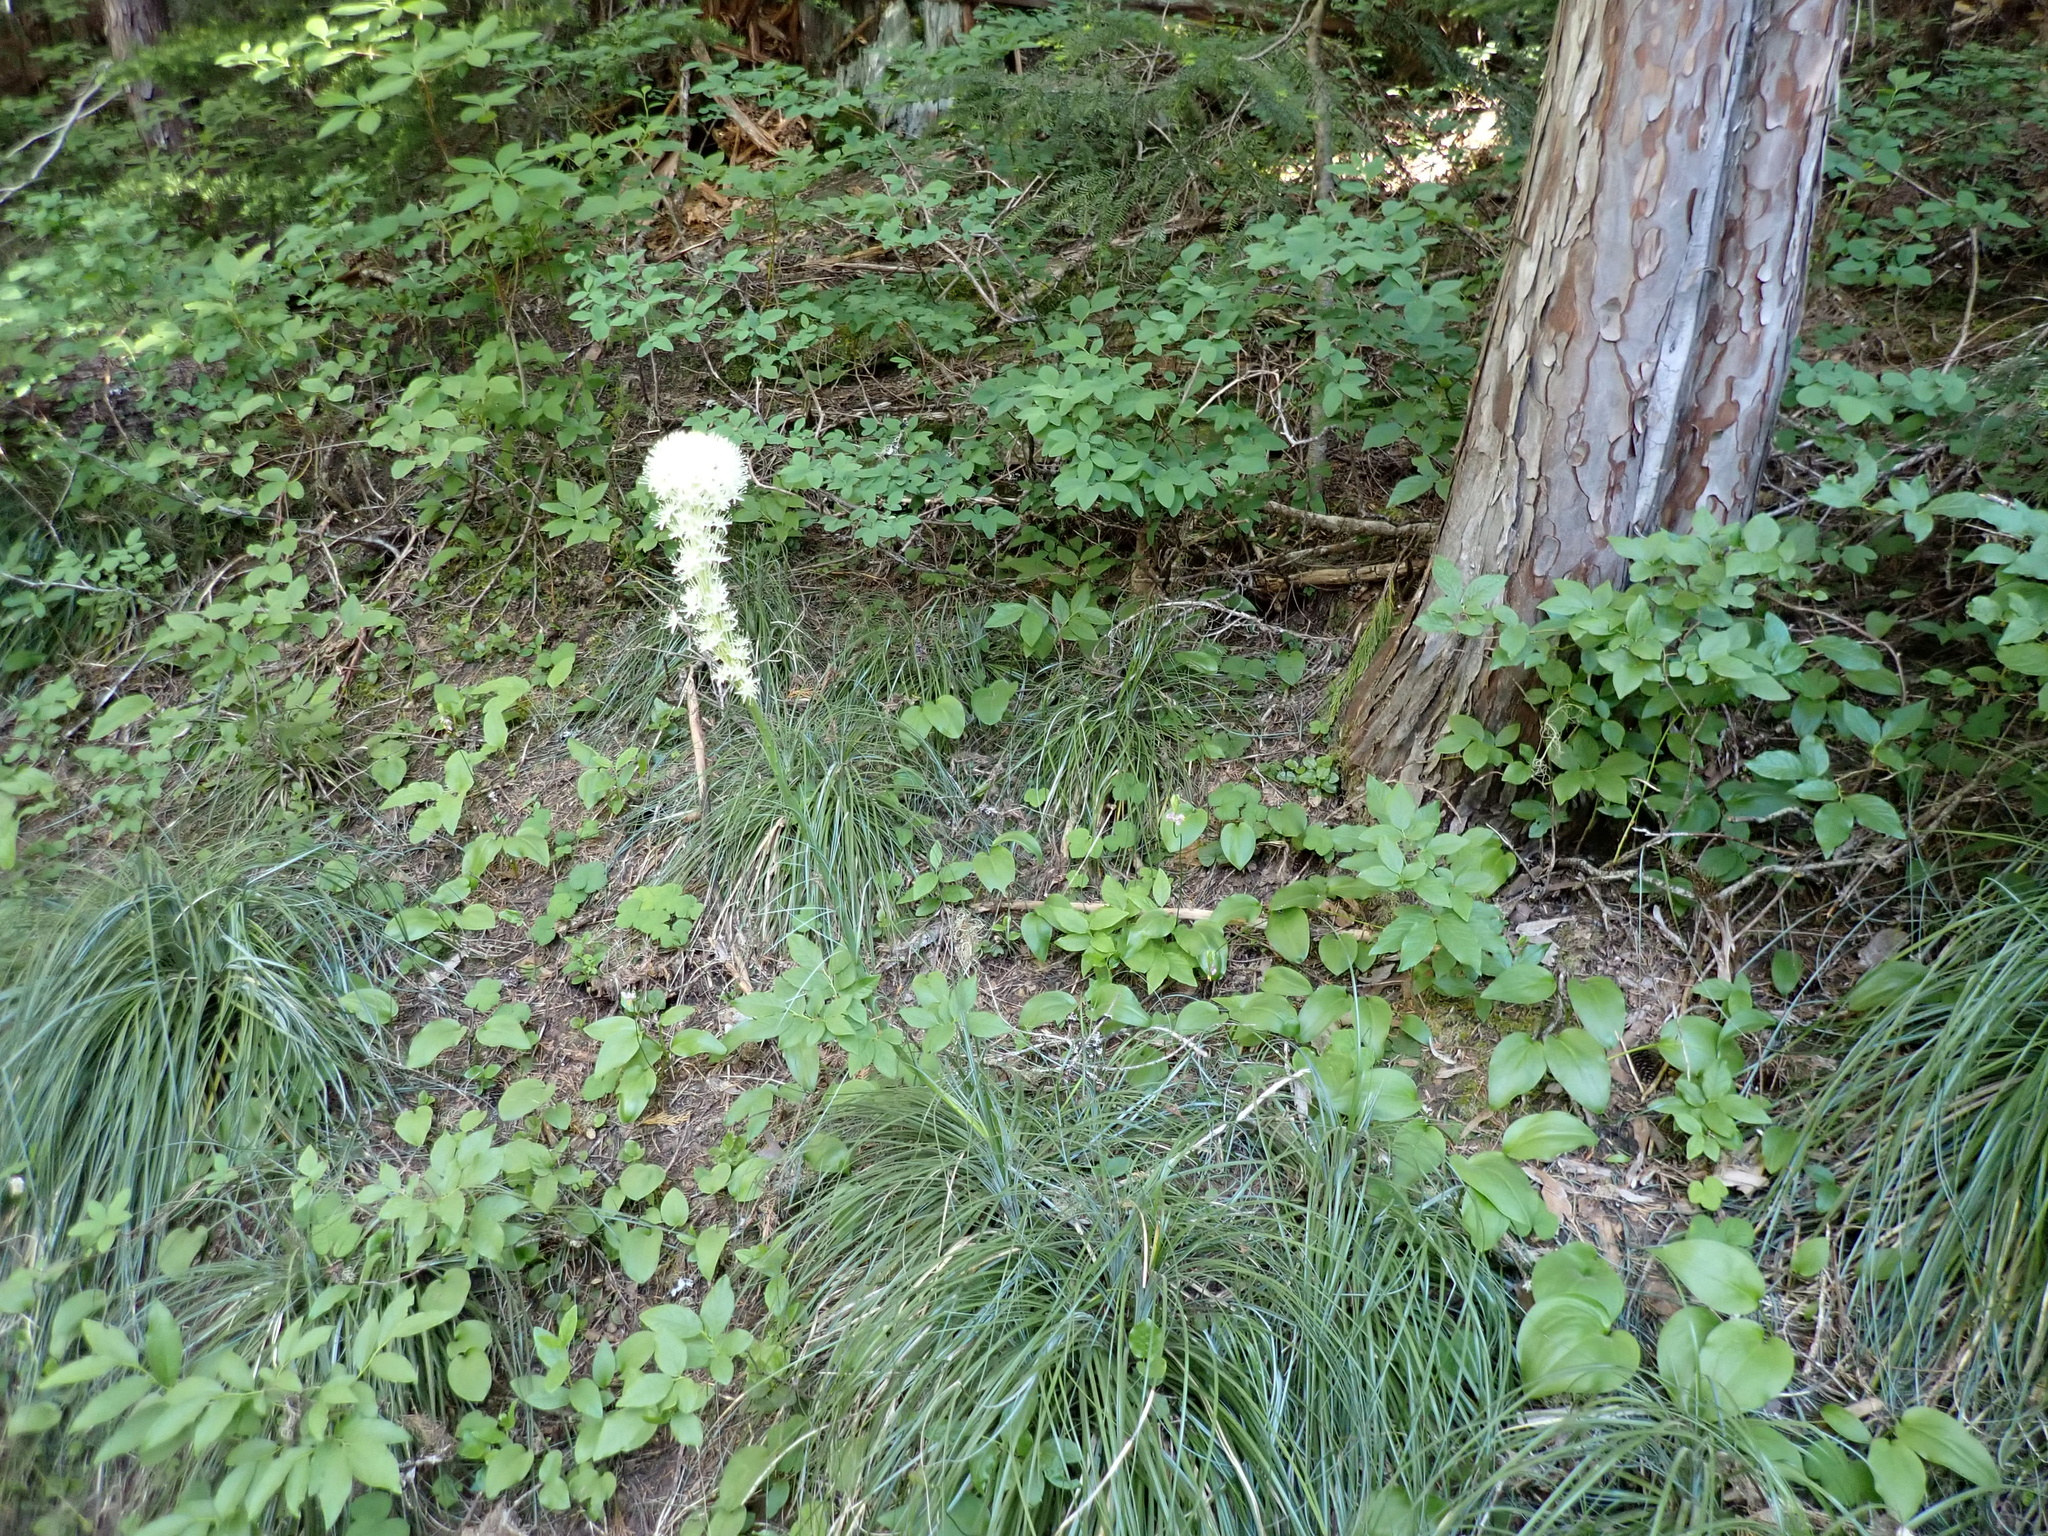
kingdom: Plantae
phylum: Tracheophyta
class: Liliopsida
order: Liliales
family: Melanthiaceae
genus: Xerophyllum
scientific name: Xerophyllum tenax
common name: Bear-grass
